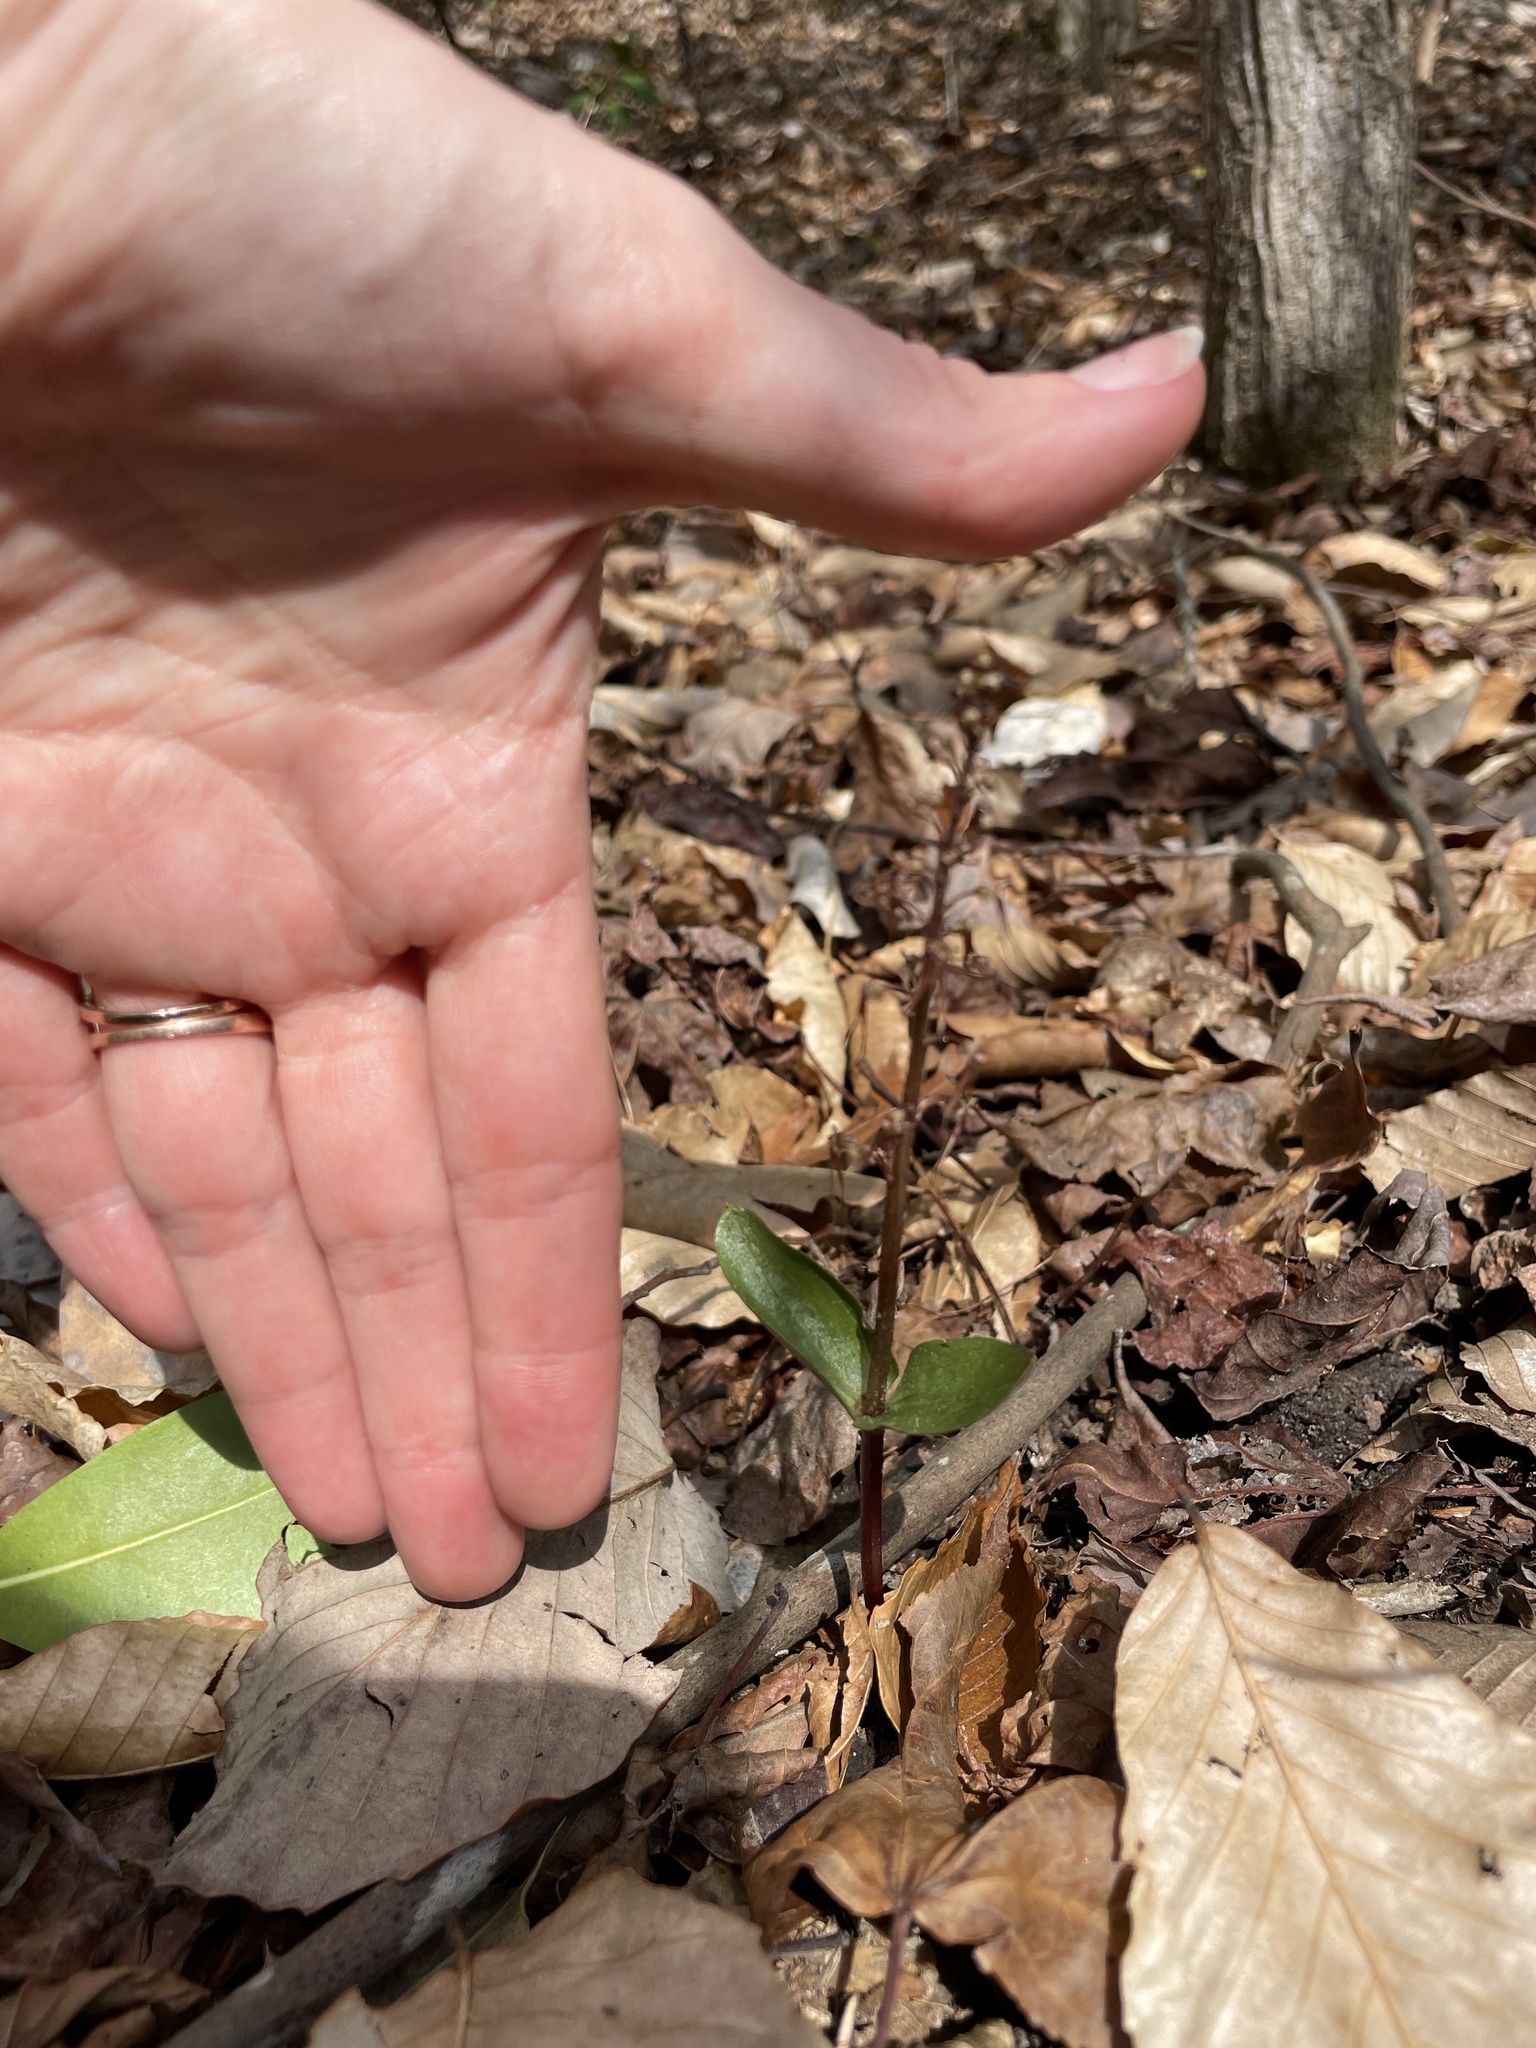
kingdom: Plantae
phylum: Tracheophyta
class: Liliopsida
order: Asparagales
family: Orchidaceae
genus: Neottia
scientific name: Neottia bifolia
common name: Southern twayblade
